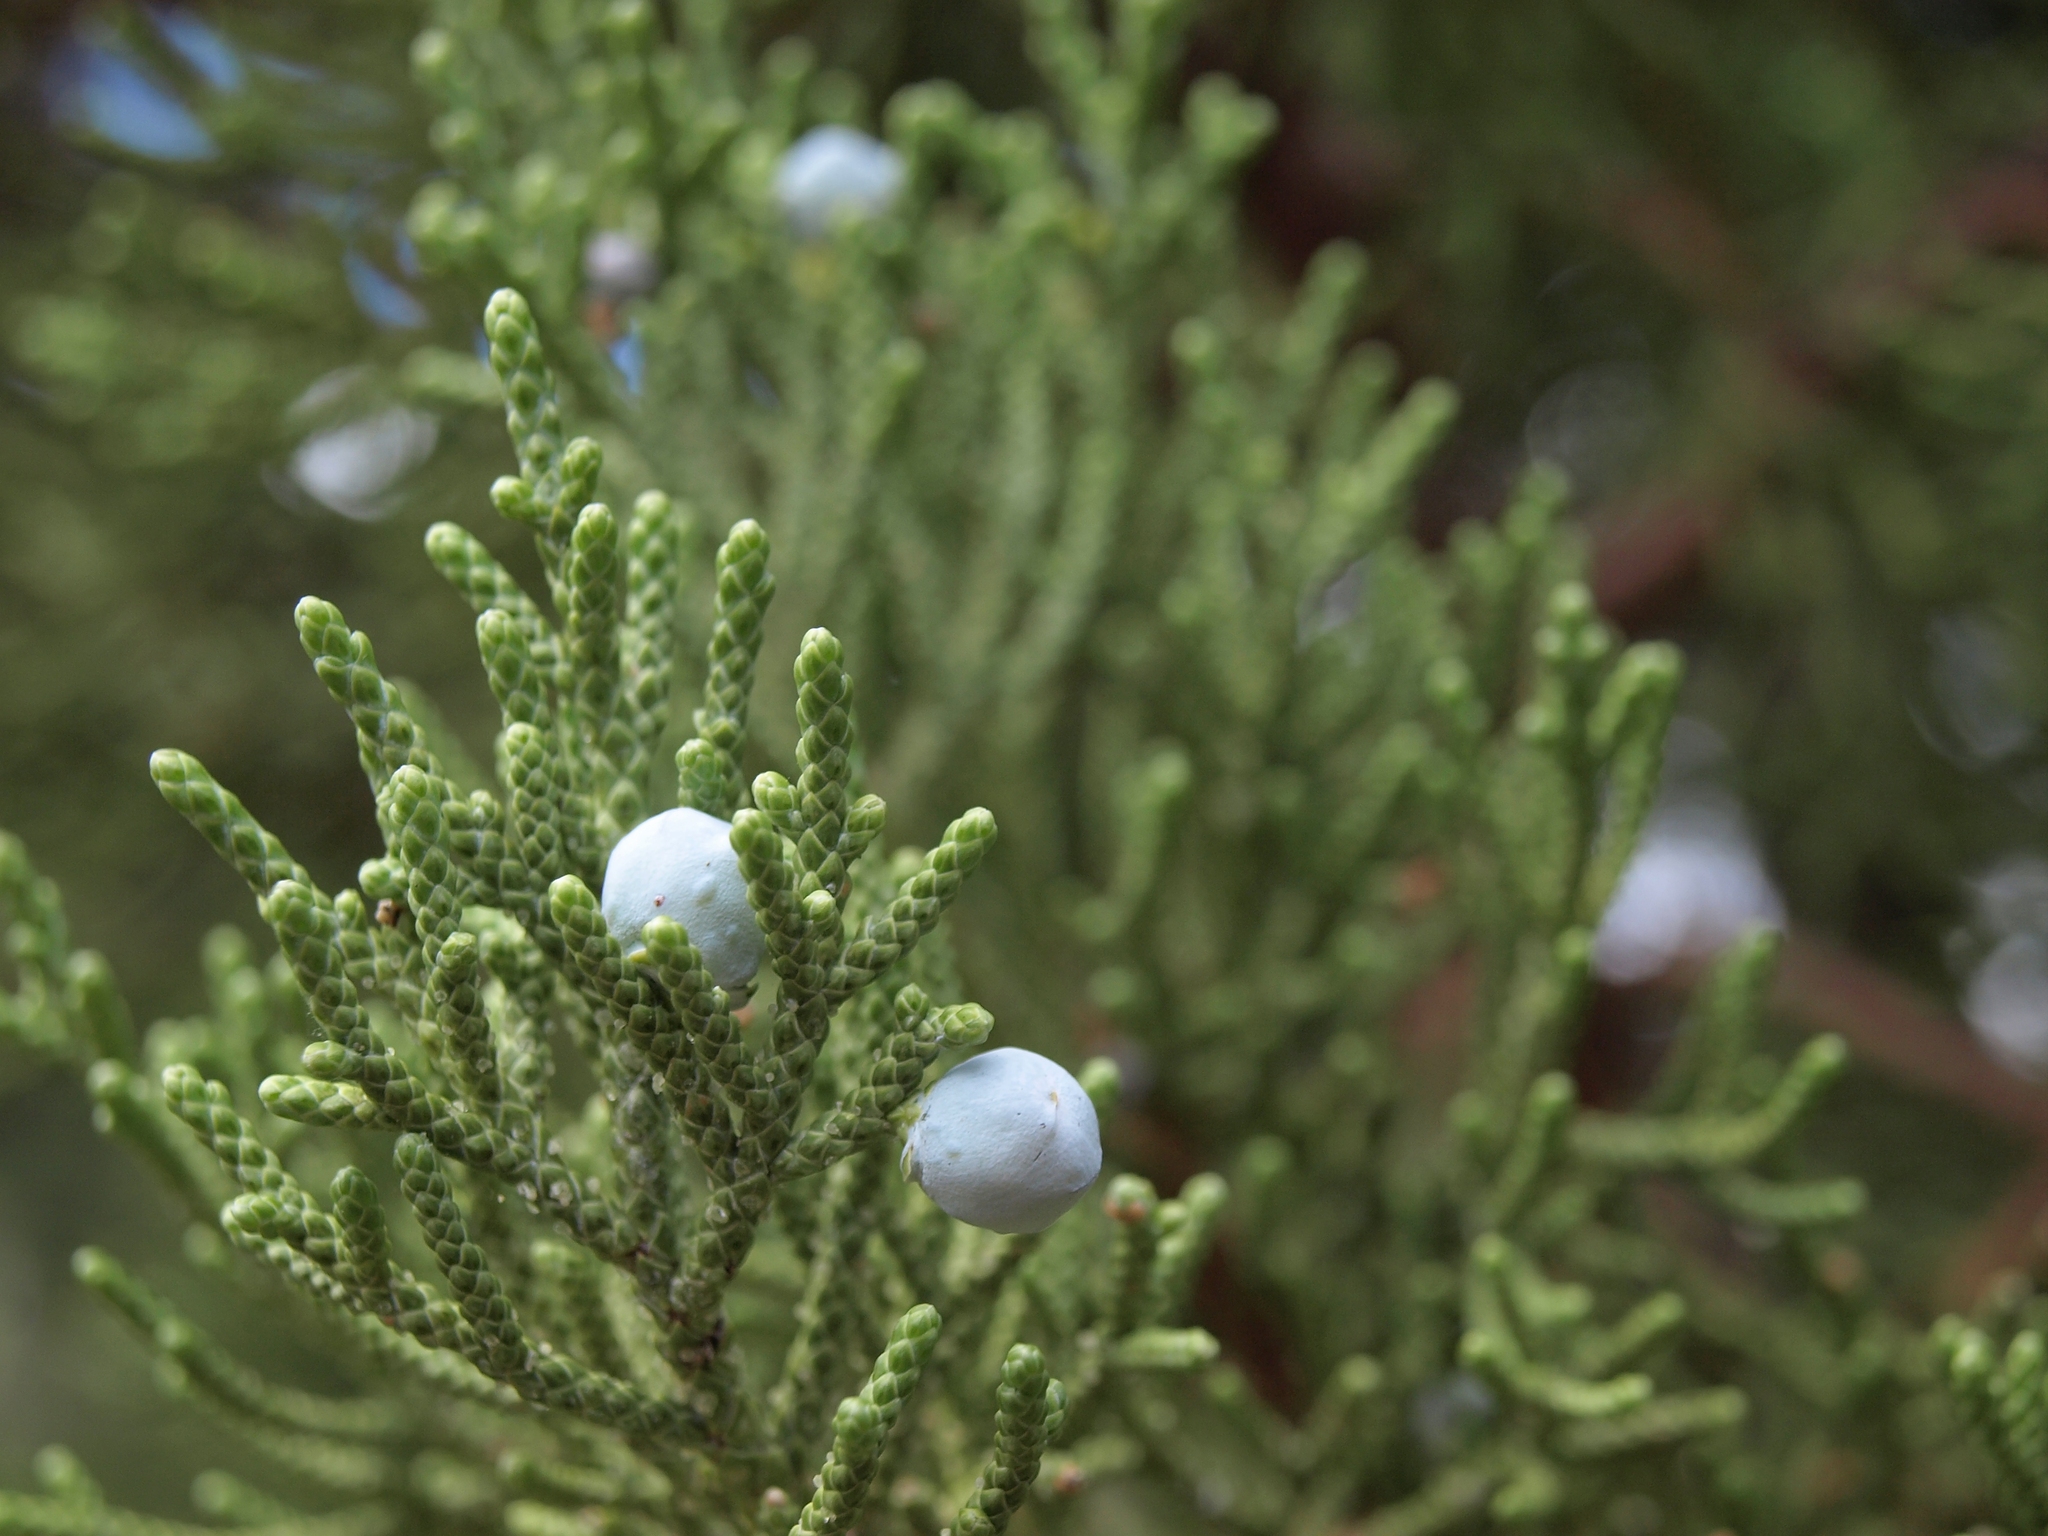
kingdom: Plantae
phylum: Tracheophyta
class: Pinopsida
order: Pinales
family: Cupressaceae
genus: Juniperus
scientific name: Juniperus occidentalis
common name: Western juniper
